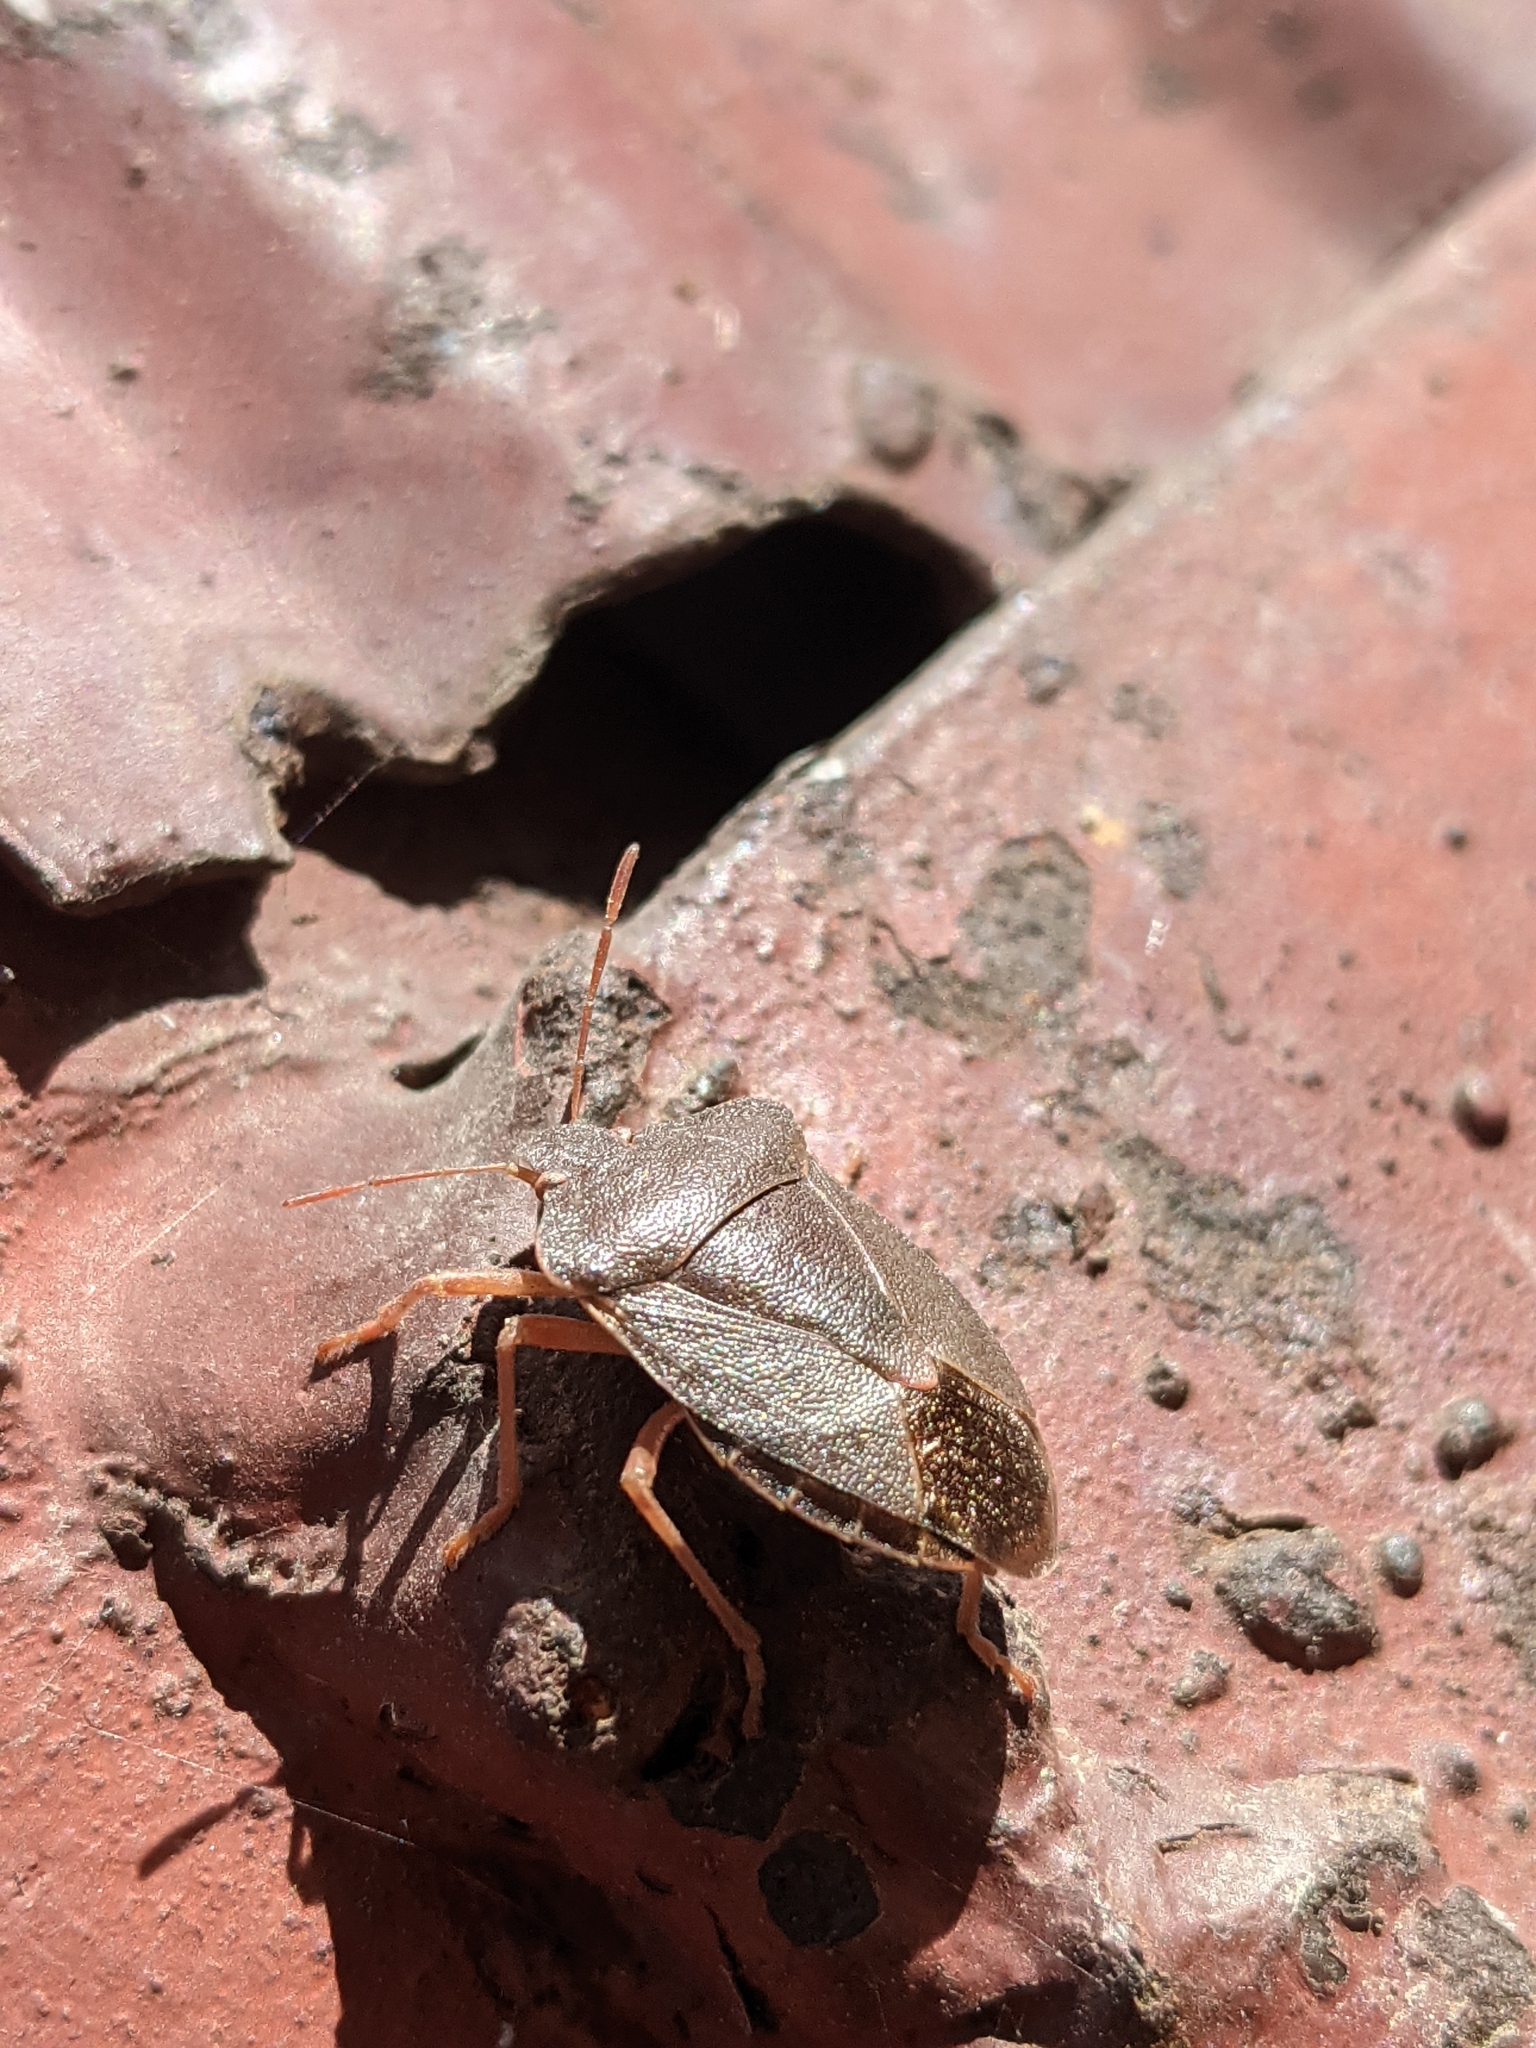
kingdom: Animalia
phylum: Arthropoda
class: Insecta
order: Hemiptera
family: Pentatomidae
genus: Palomena
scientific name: Palomena prasina
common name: Green shieldbug
